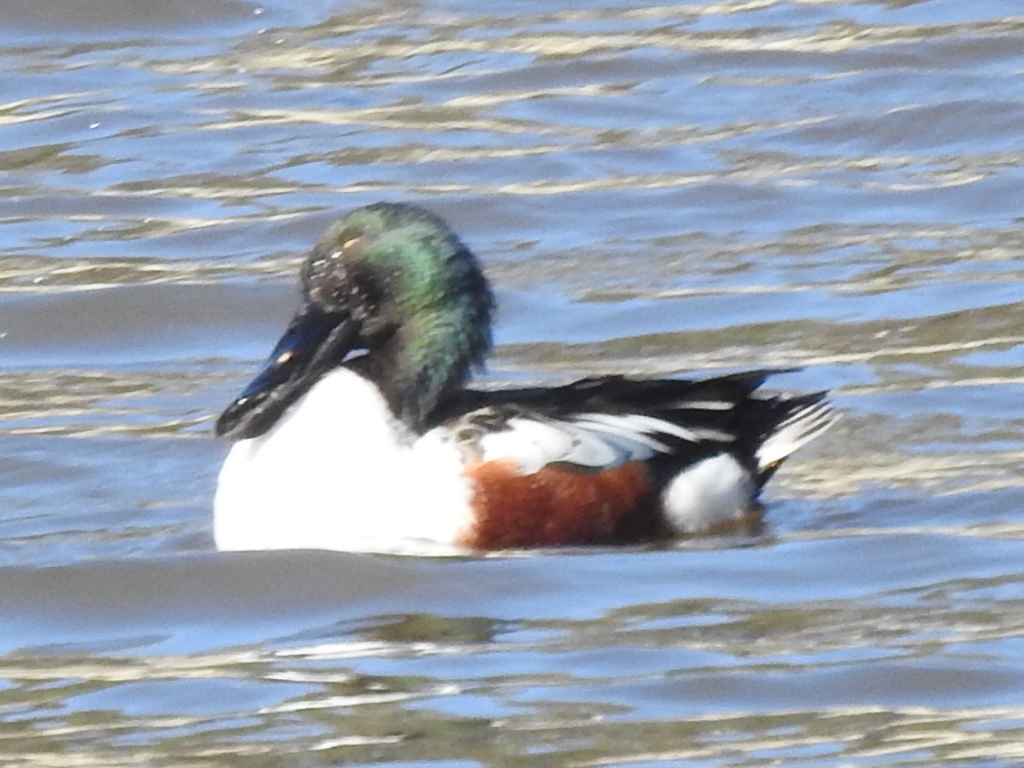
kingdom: Animalia
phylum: Chordata
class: Aves
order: Anseriformes
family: Anatidae
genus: Spatula
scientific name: Spatula clypeata
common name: Northern shoveler
